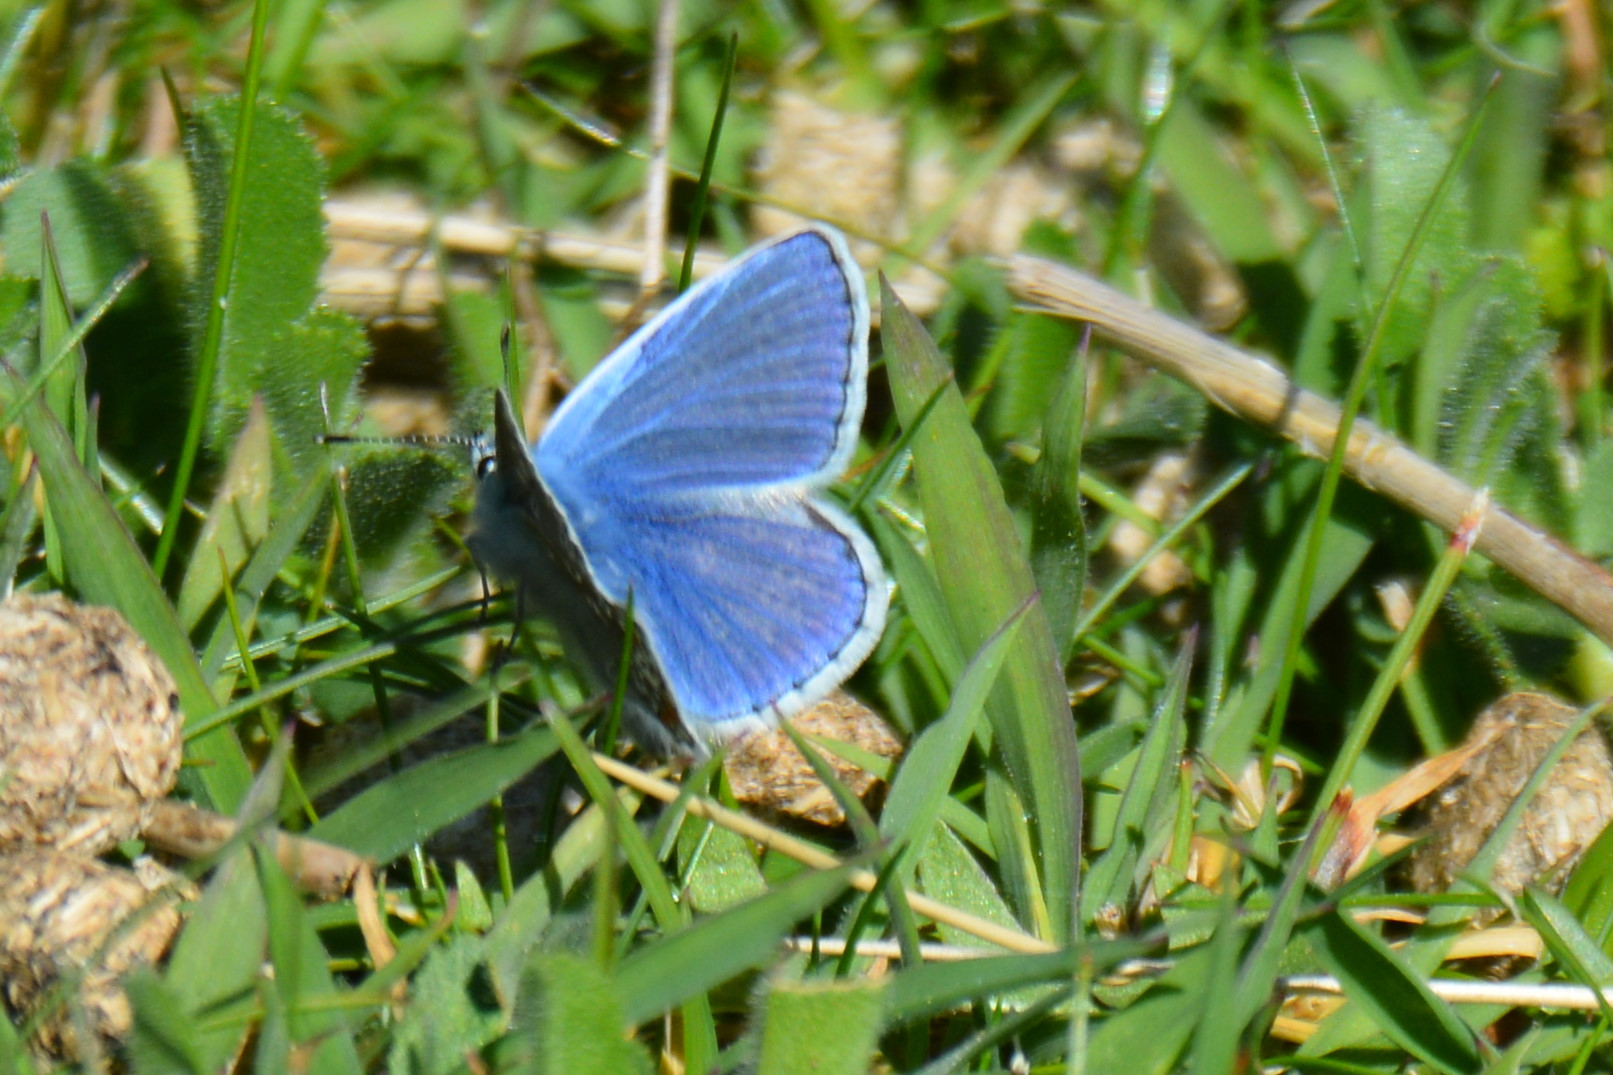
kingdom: Animalia
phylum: Arthropoda
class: Insecta
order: Lepidoptera
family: Lycaenidae
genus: Polyommatus
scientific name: Polyommatus icarus
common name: Common blue
